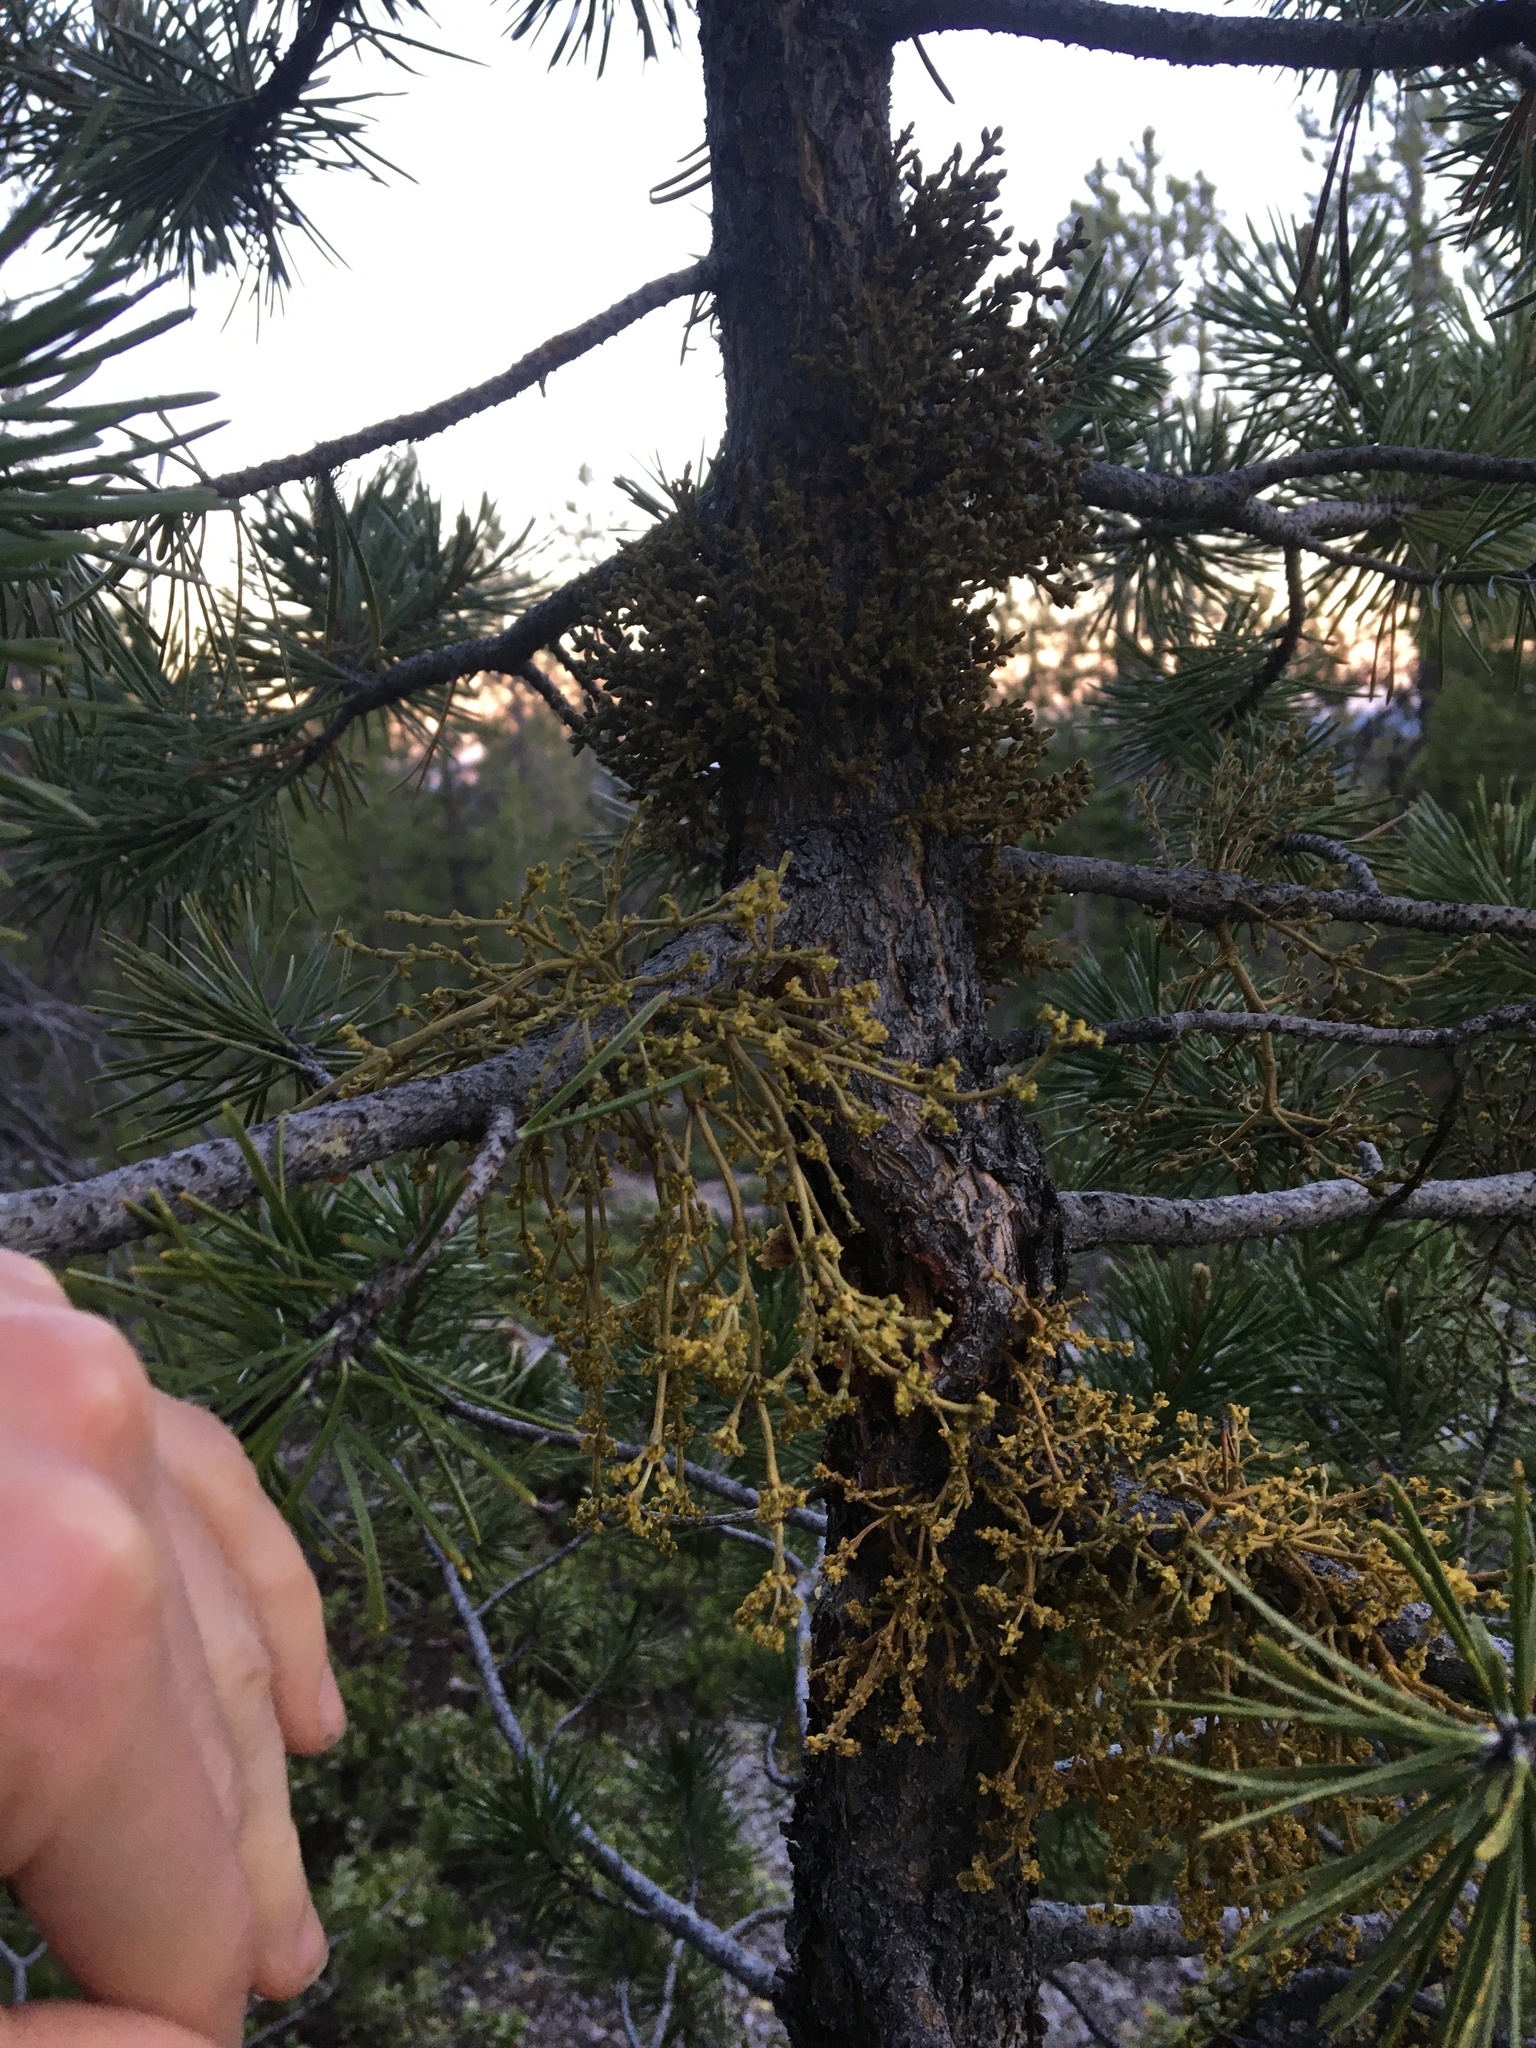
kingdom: Plantae
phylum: Tracheophyta
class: Magnoliopsida
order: Santalales
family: Viscaceae
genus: Arceuthobium
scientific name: Arceuthobium americanum
